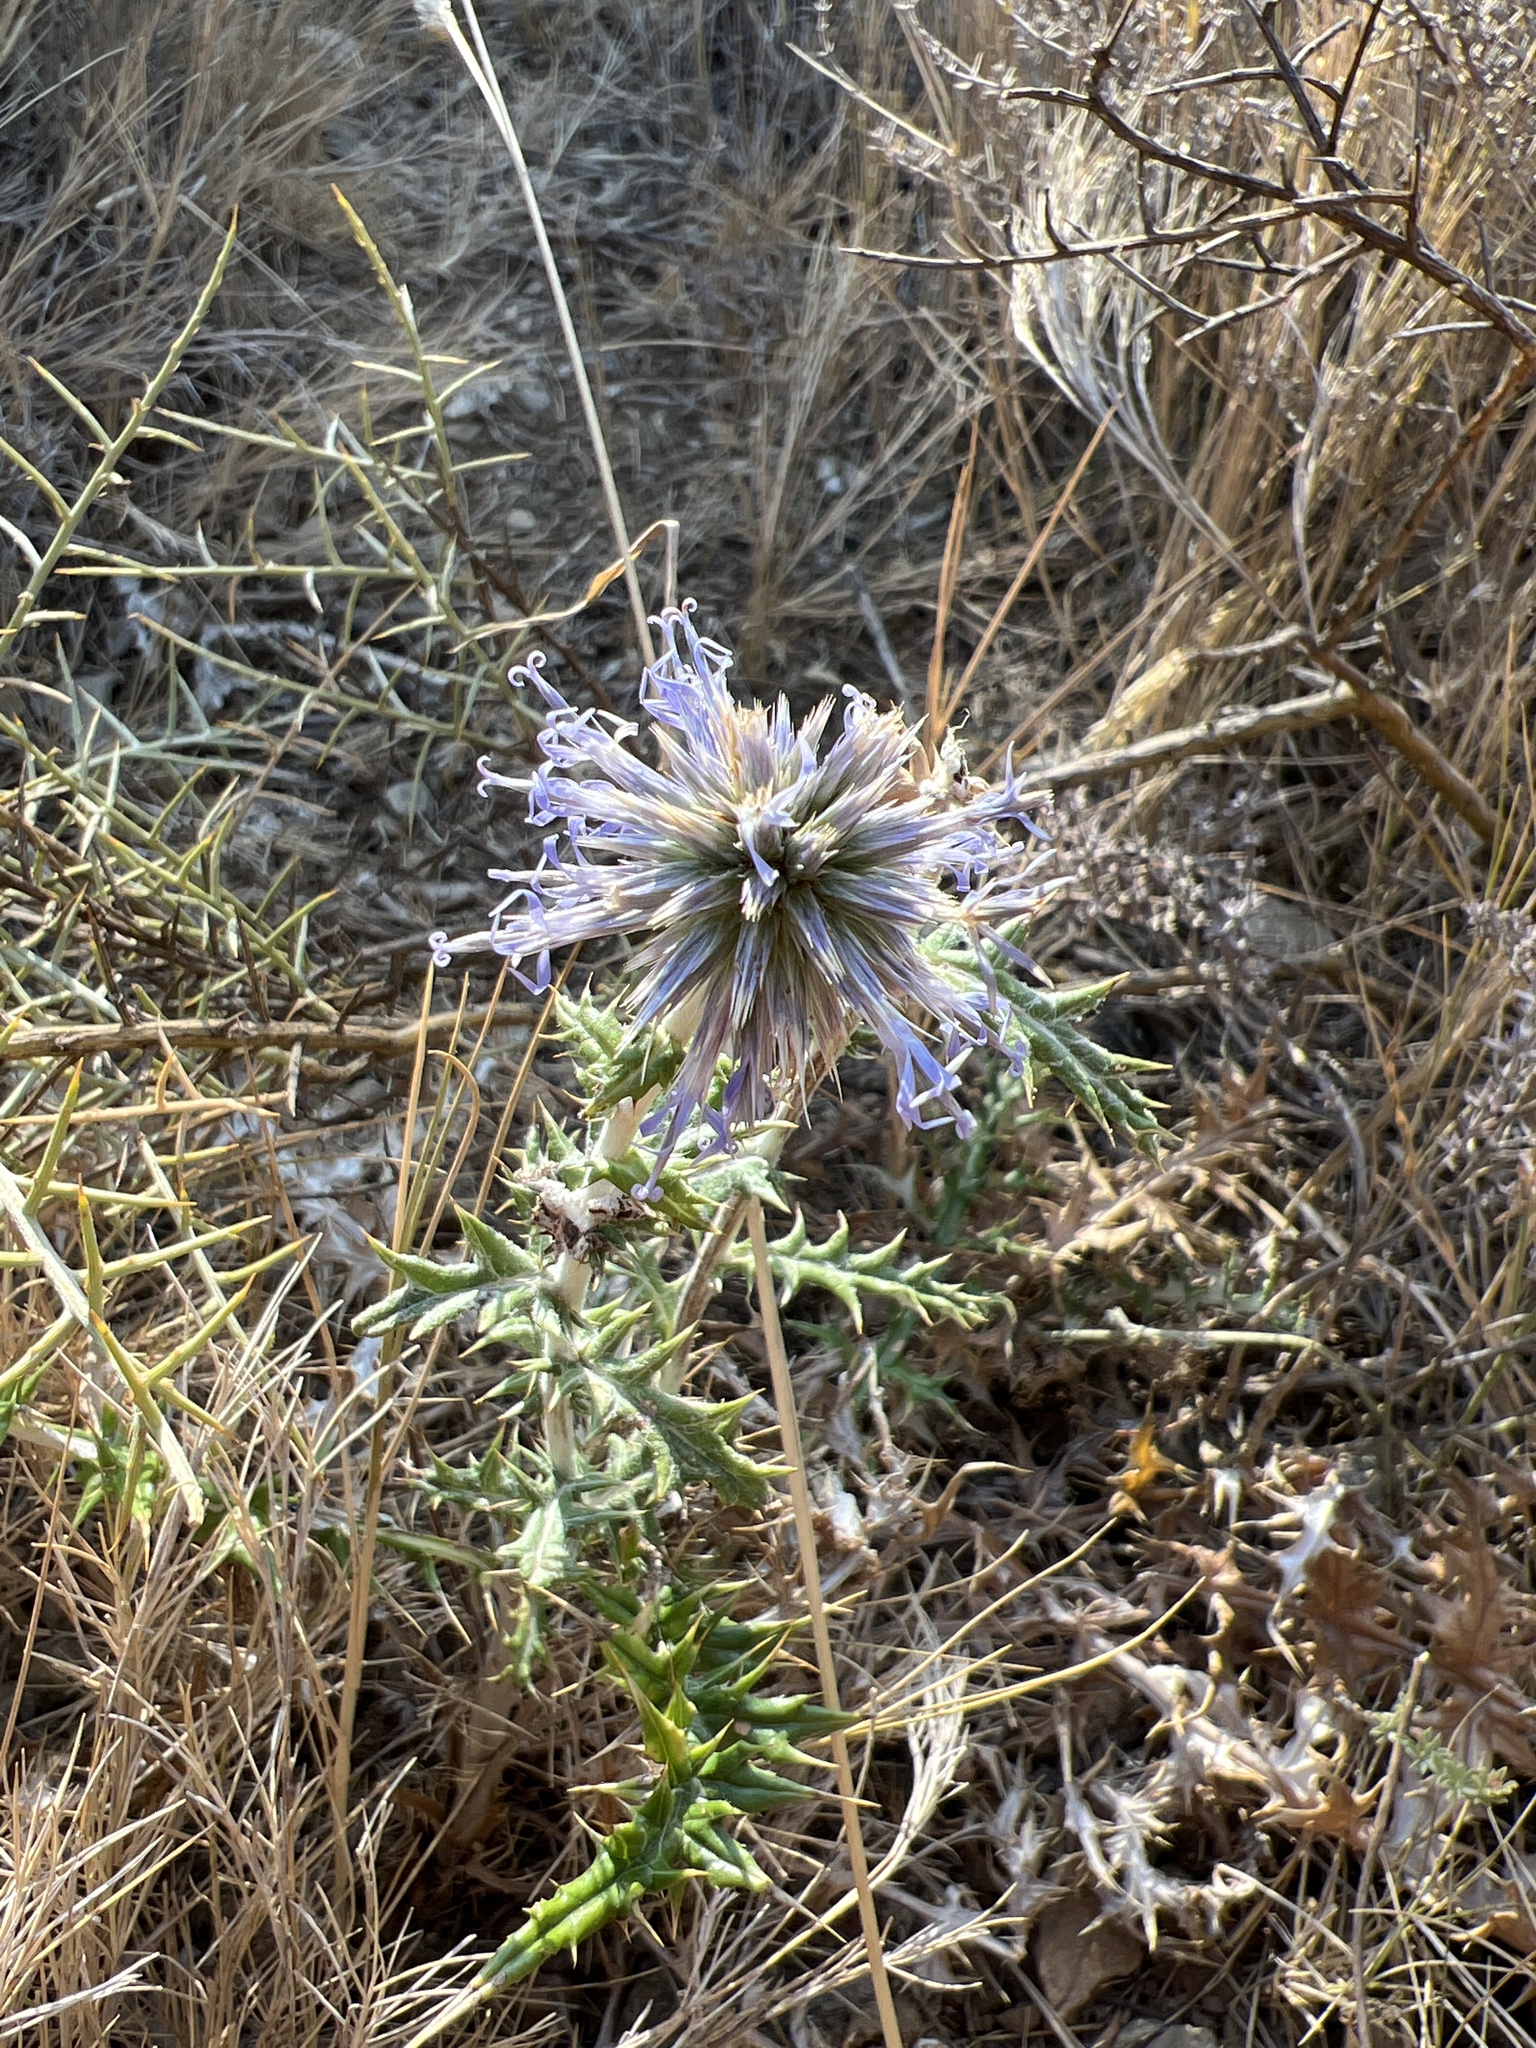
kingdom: Plantae
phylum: Tracheophyta
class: Magnoliopsida
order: Asterales
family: Asteraceae
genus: Echinops
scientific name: Echinops ritro
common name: Globe thistle
